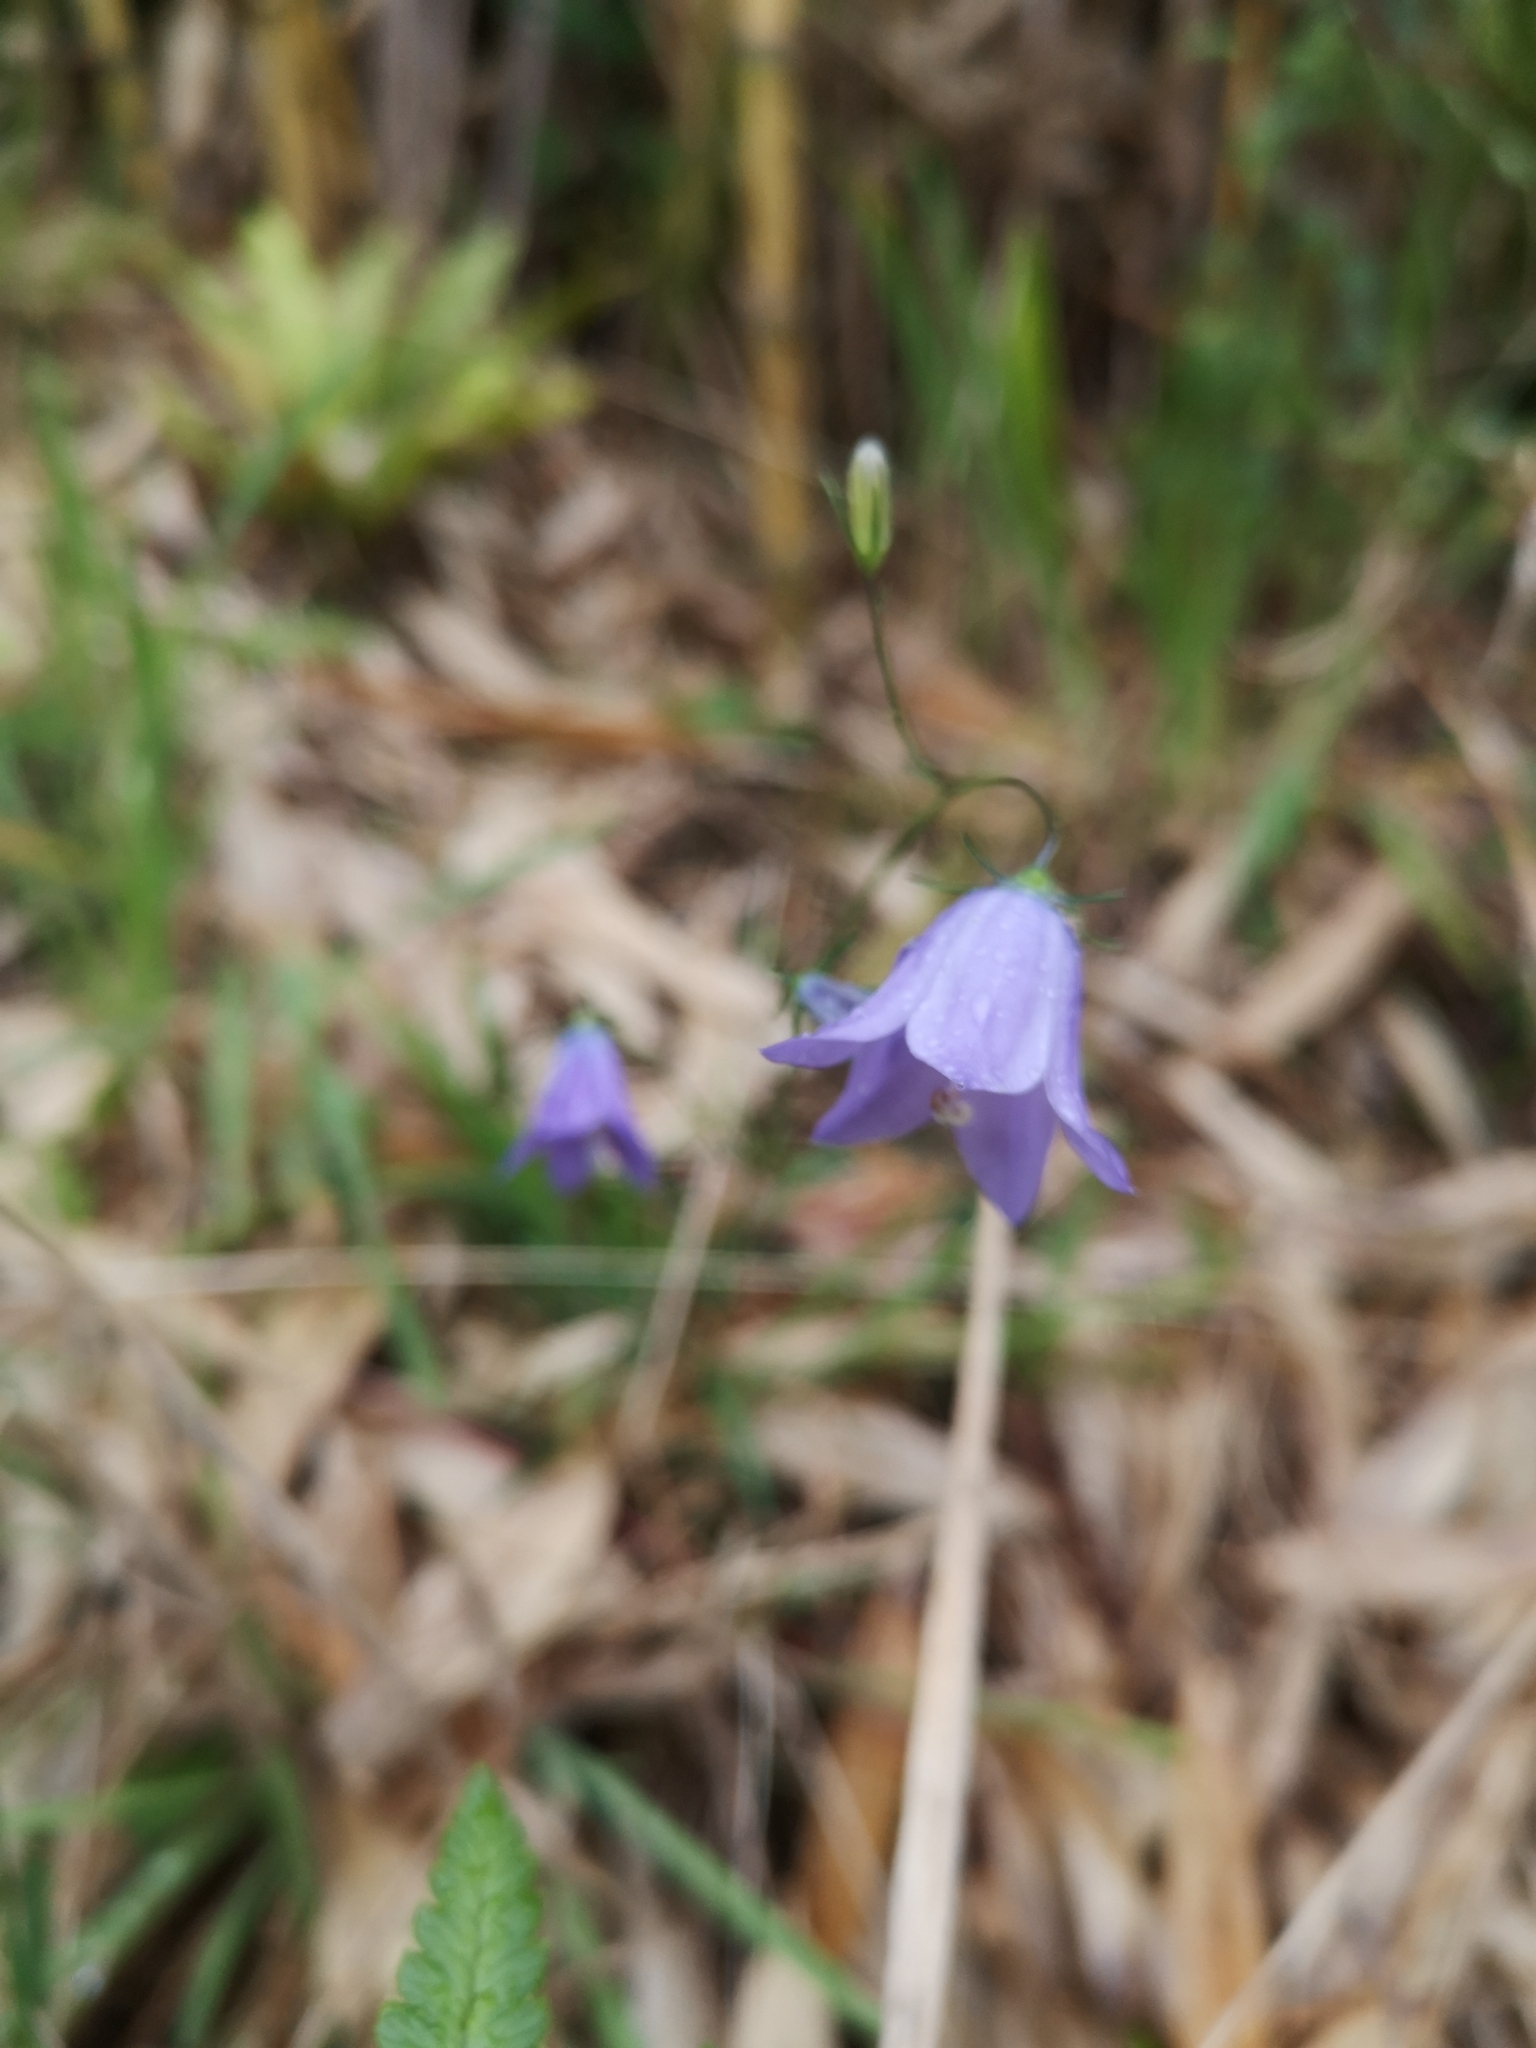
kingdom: Plantae
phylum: Tracheophyta
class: Magnoliopsida
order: Asterales
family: Campanulaceae
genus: Campanula
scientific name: Campanula rotundifolia
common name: Harebell
